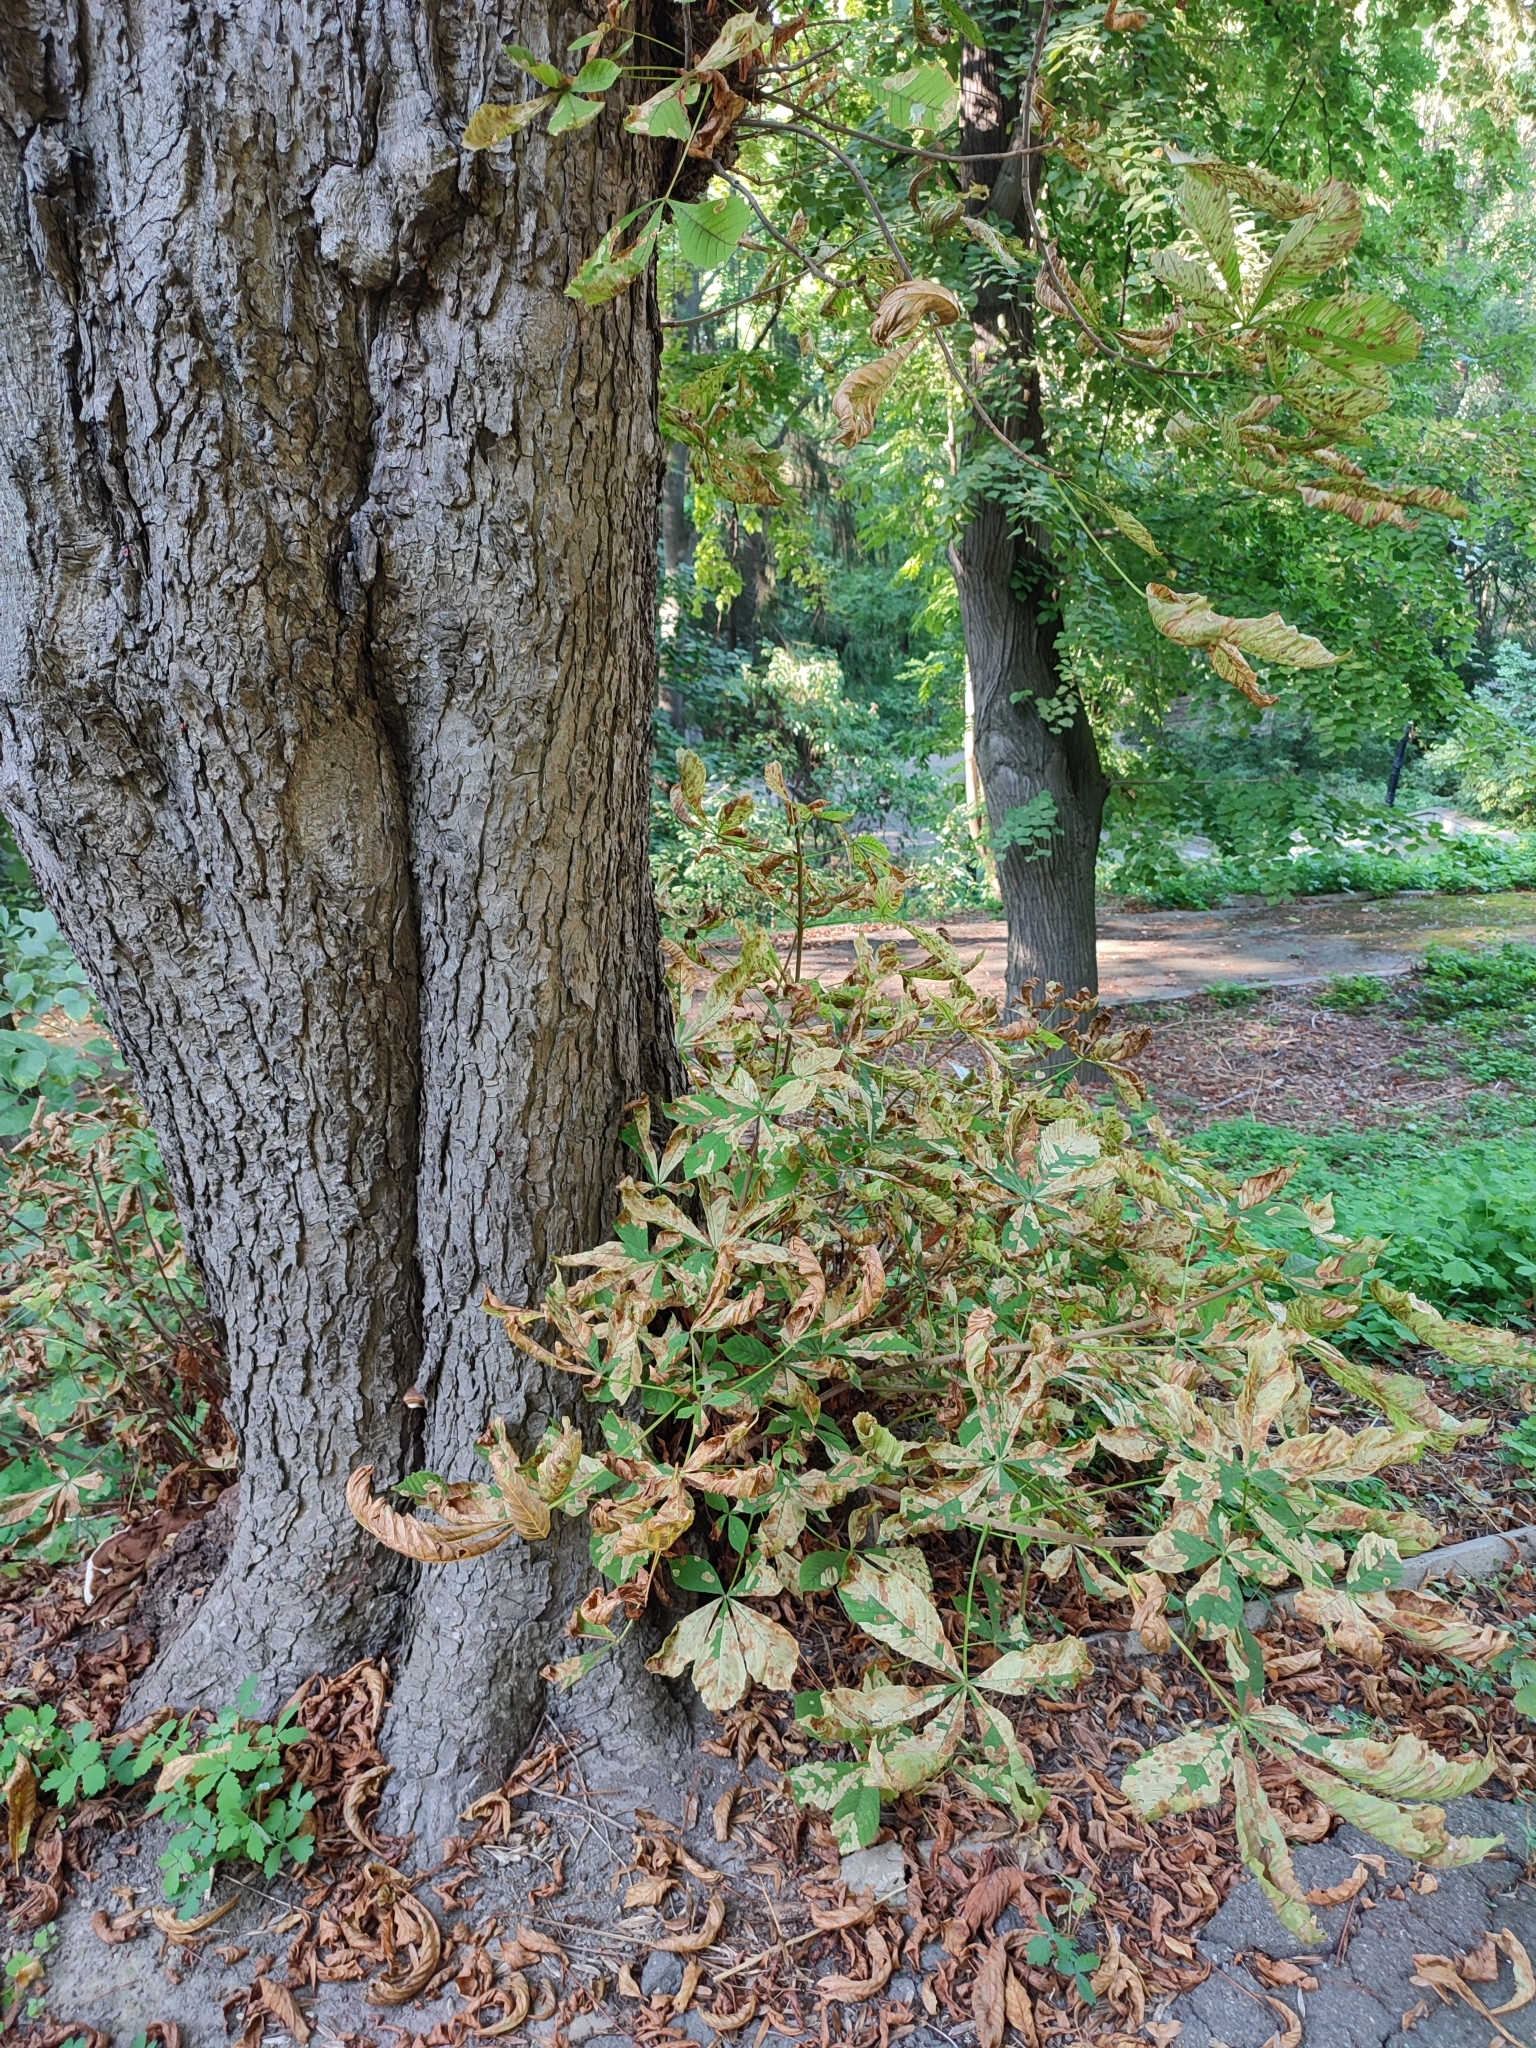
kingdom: Animalia
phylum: Arthropoda
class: Insecta
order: Lepidoptera
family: Gracillariidae
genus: Cameraria
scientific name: Cameraria ohridella
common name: Horse-chestnut leaf-miner
